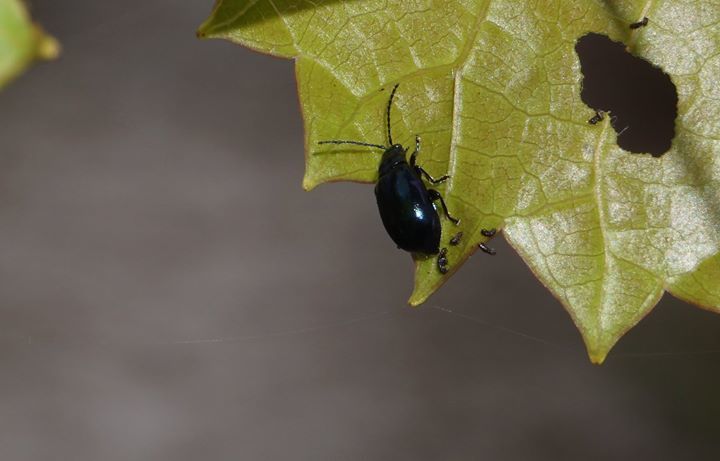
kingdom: Animalia
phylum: Arthropoda
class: Insecta
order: Coleoptera
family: Chrysomelidae
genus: Altica
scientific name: Altica chalybea
